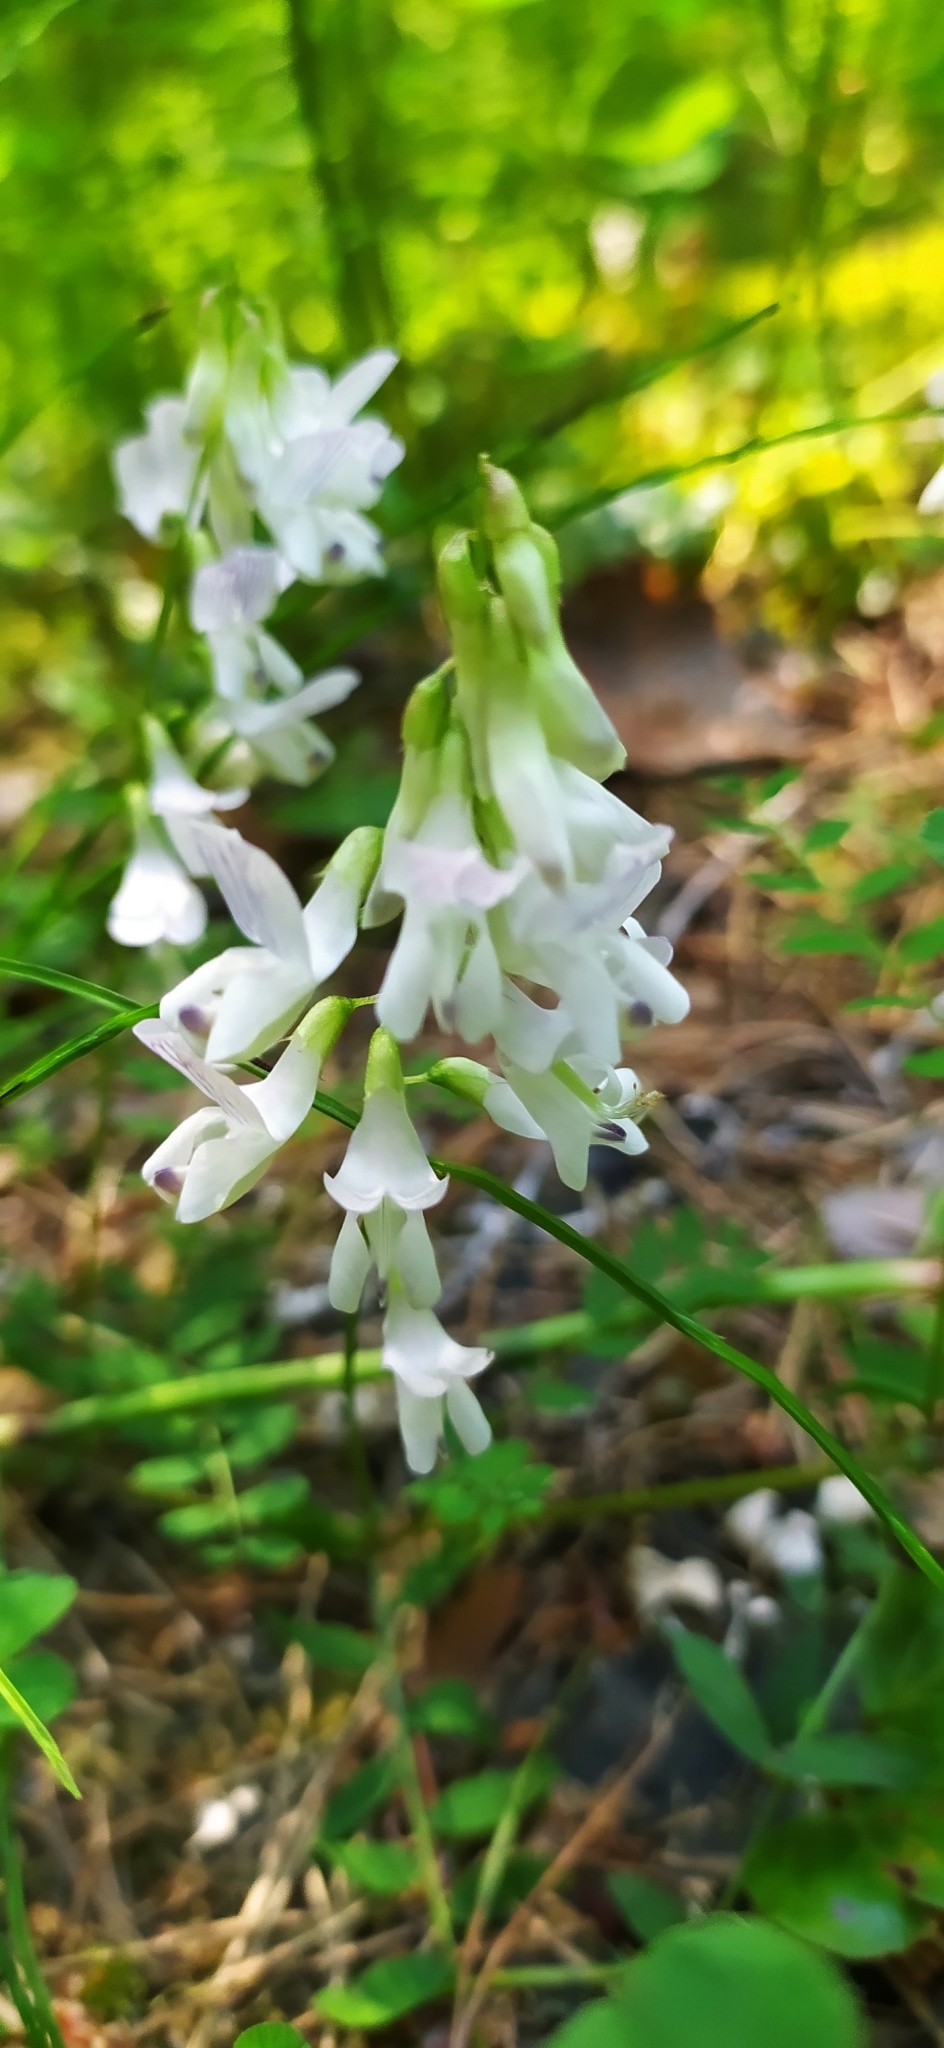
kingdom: Plantae
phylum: Tracheophyta
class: Magnoliopsida
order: Fabales
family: Fabaceae
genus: Vicia
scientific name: Vicia sylvatica
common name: Wood vetch
